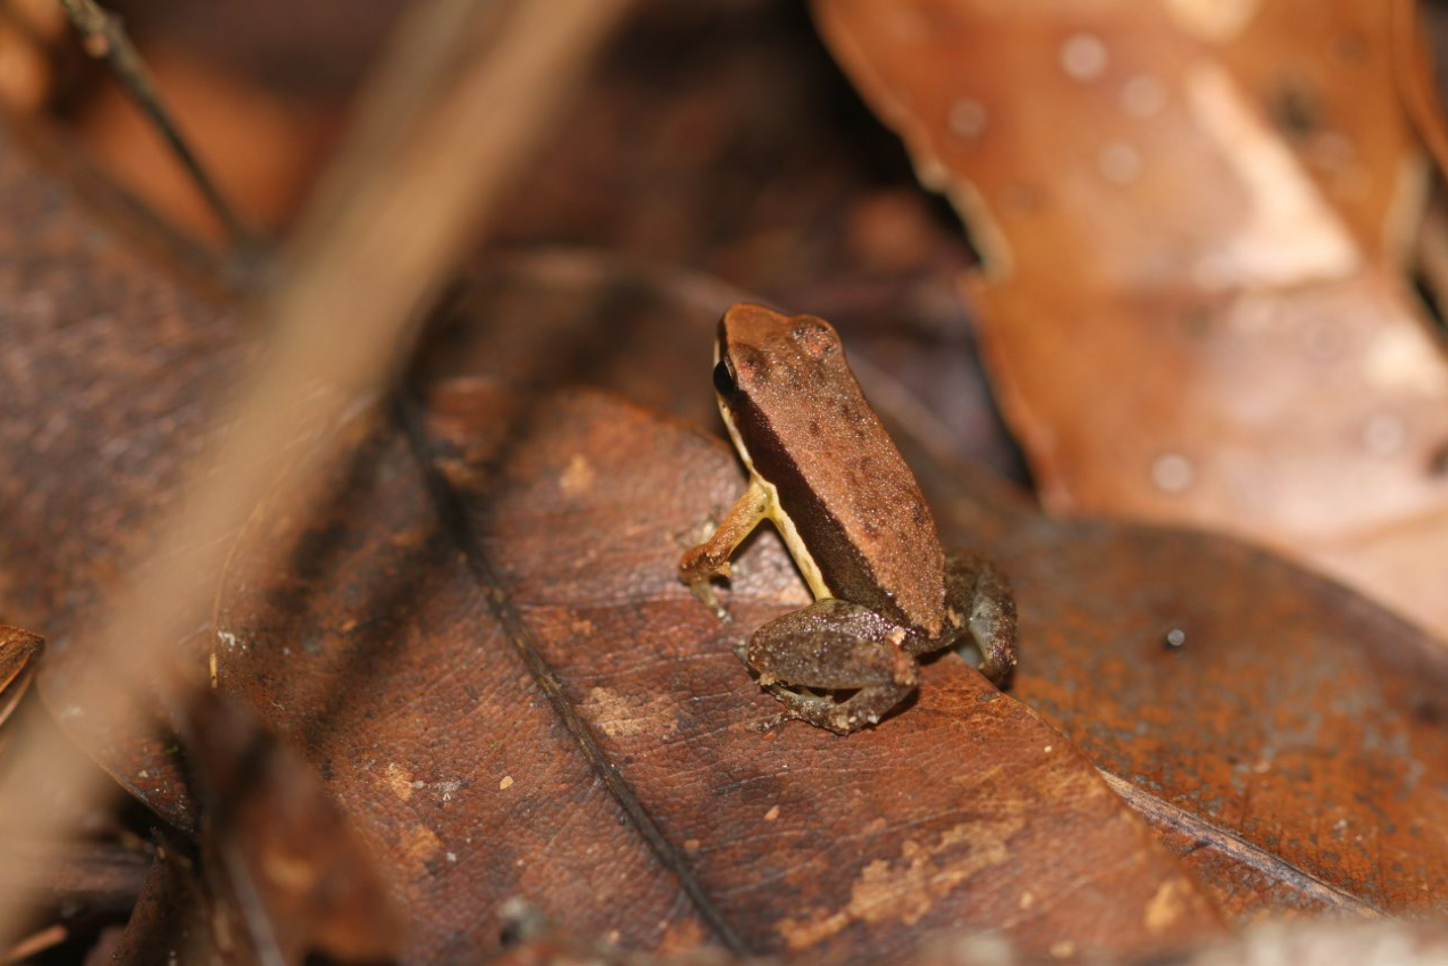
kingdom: Animalia
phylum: Chordata
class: Amphibia
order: Anura
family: Aromobatidae
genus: Allobates
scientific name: Allobates granti
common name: Black-flanked poison frog
